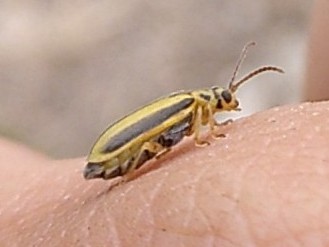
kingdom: Animalia
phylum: Arthropoda
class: Insecta
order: Coleoptera
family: Chrysomelidae
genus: Xanthogaleruca
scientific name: Xanthogaleruca luteola
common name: Elm leaf beetle
